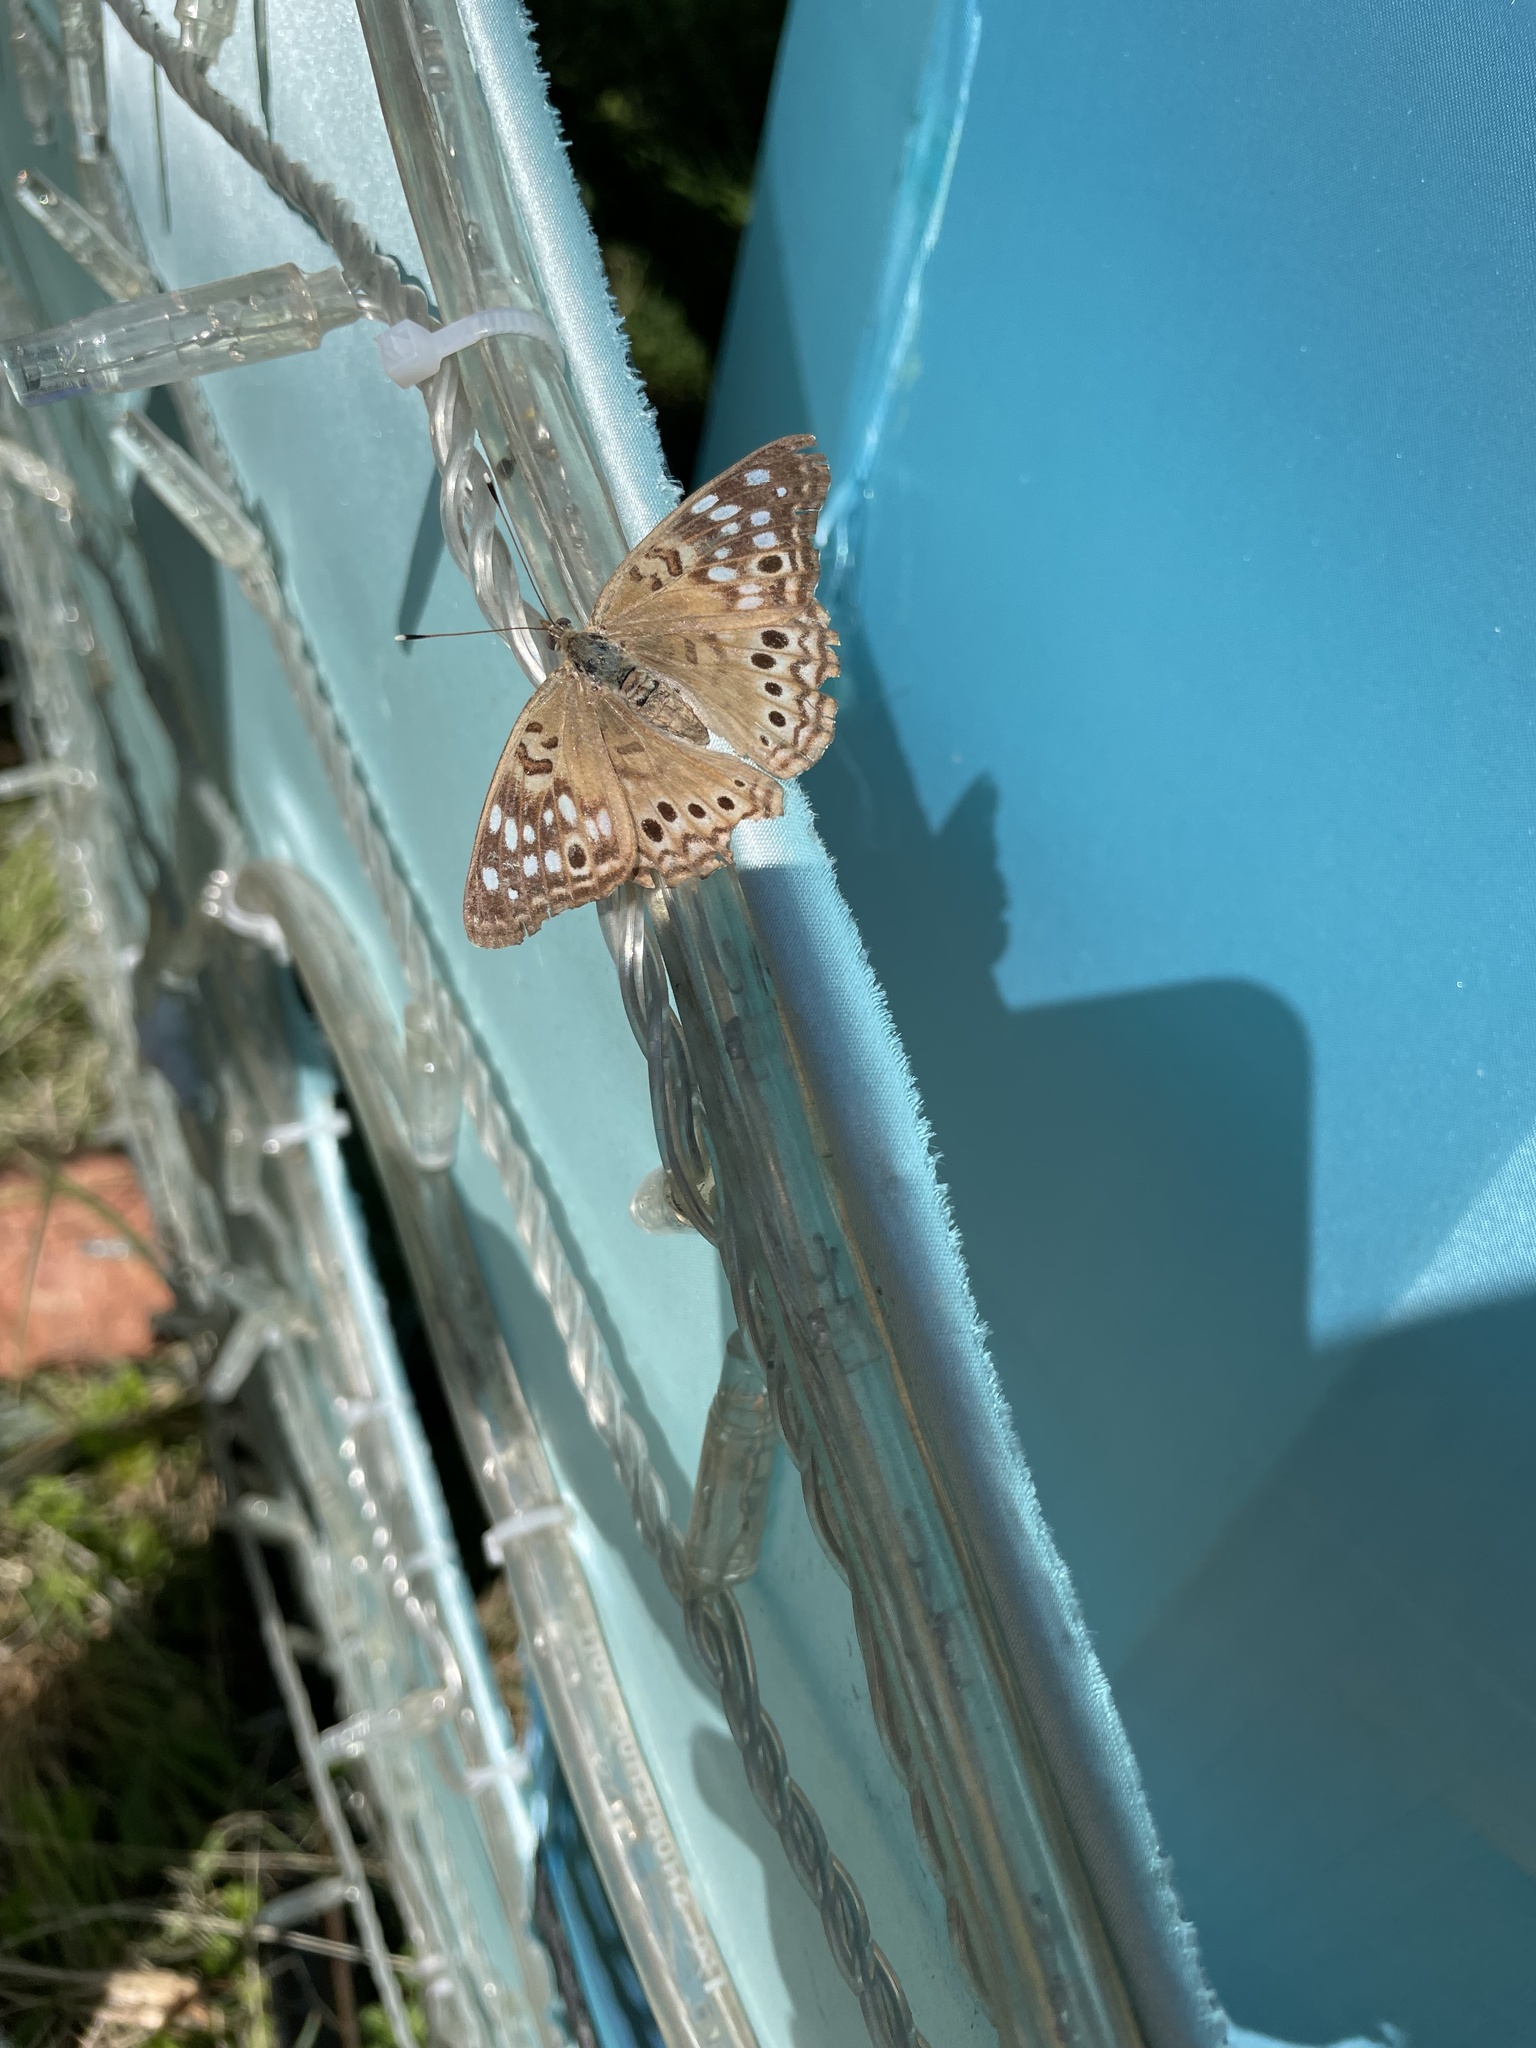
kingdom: Animalia
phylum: Arthropoda
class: Insecta
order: Lepidoptera
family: Nymphalidae
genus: Asterocampa
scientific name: Asterocampa celtis
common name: Hackberry emperor
